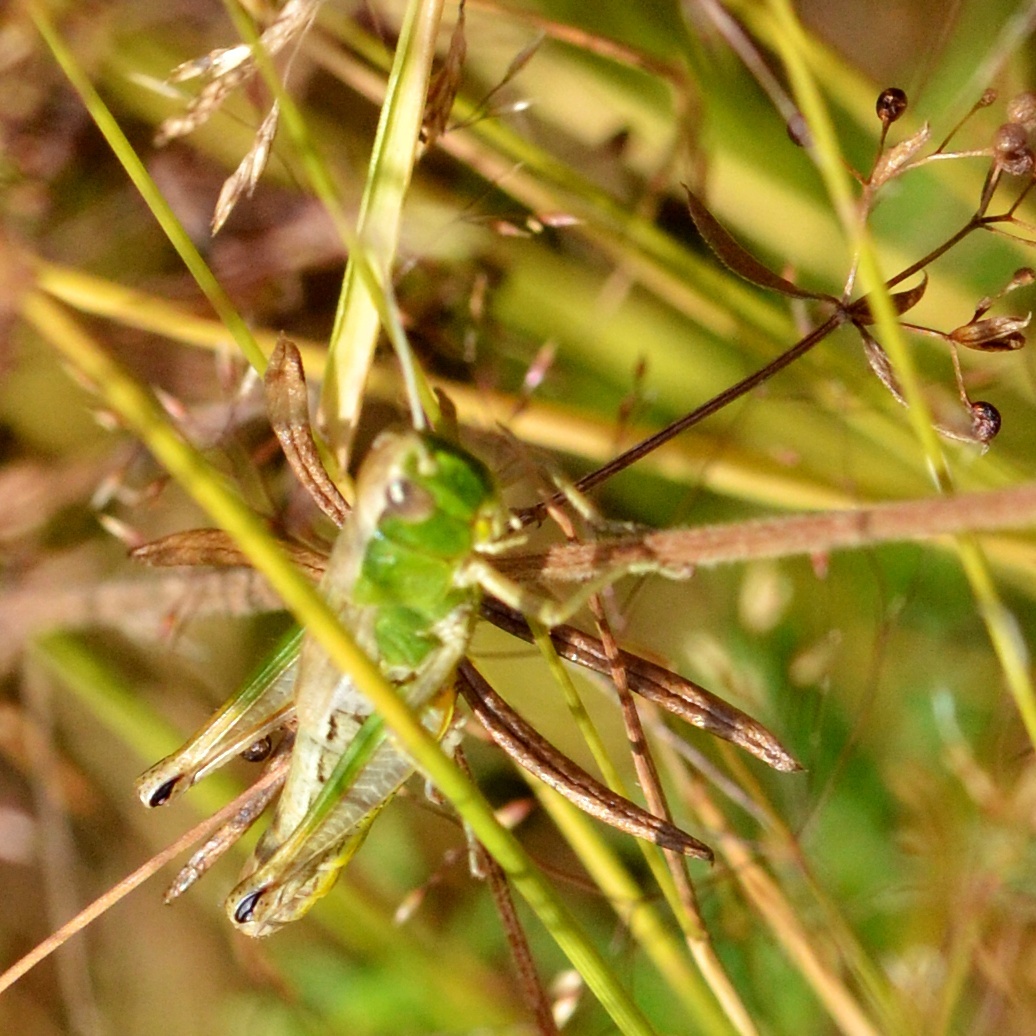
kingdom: Animalia
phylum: Arthropoda
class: Insecta
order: Orthoptera
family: Acrididae
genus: Pseudochorthippus
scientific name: Pseudochorthippus parallelus
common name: Meadow grasshopper
